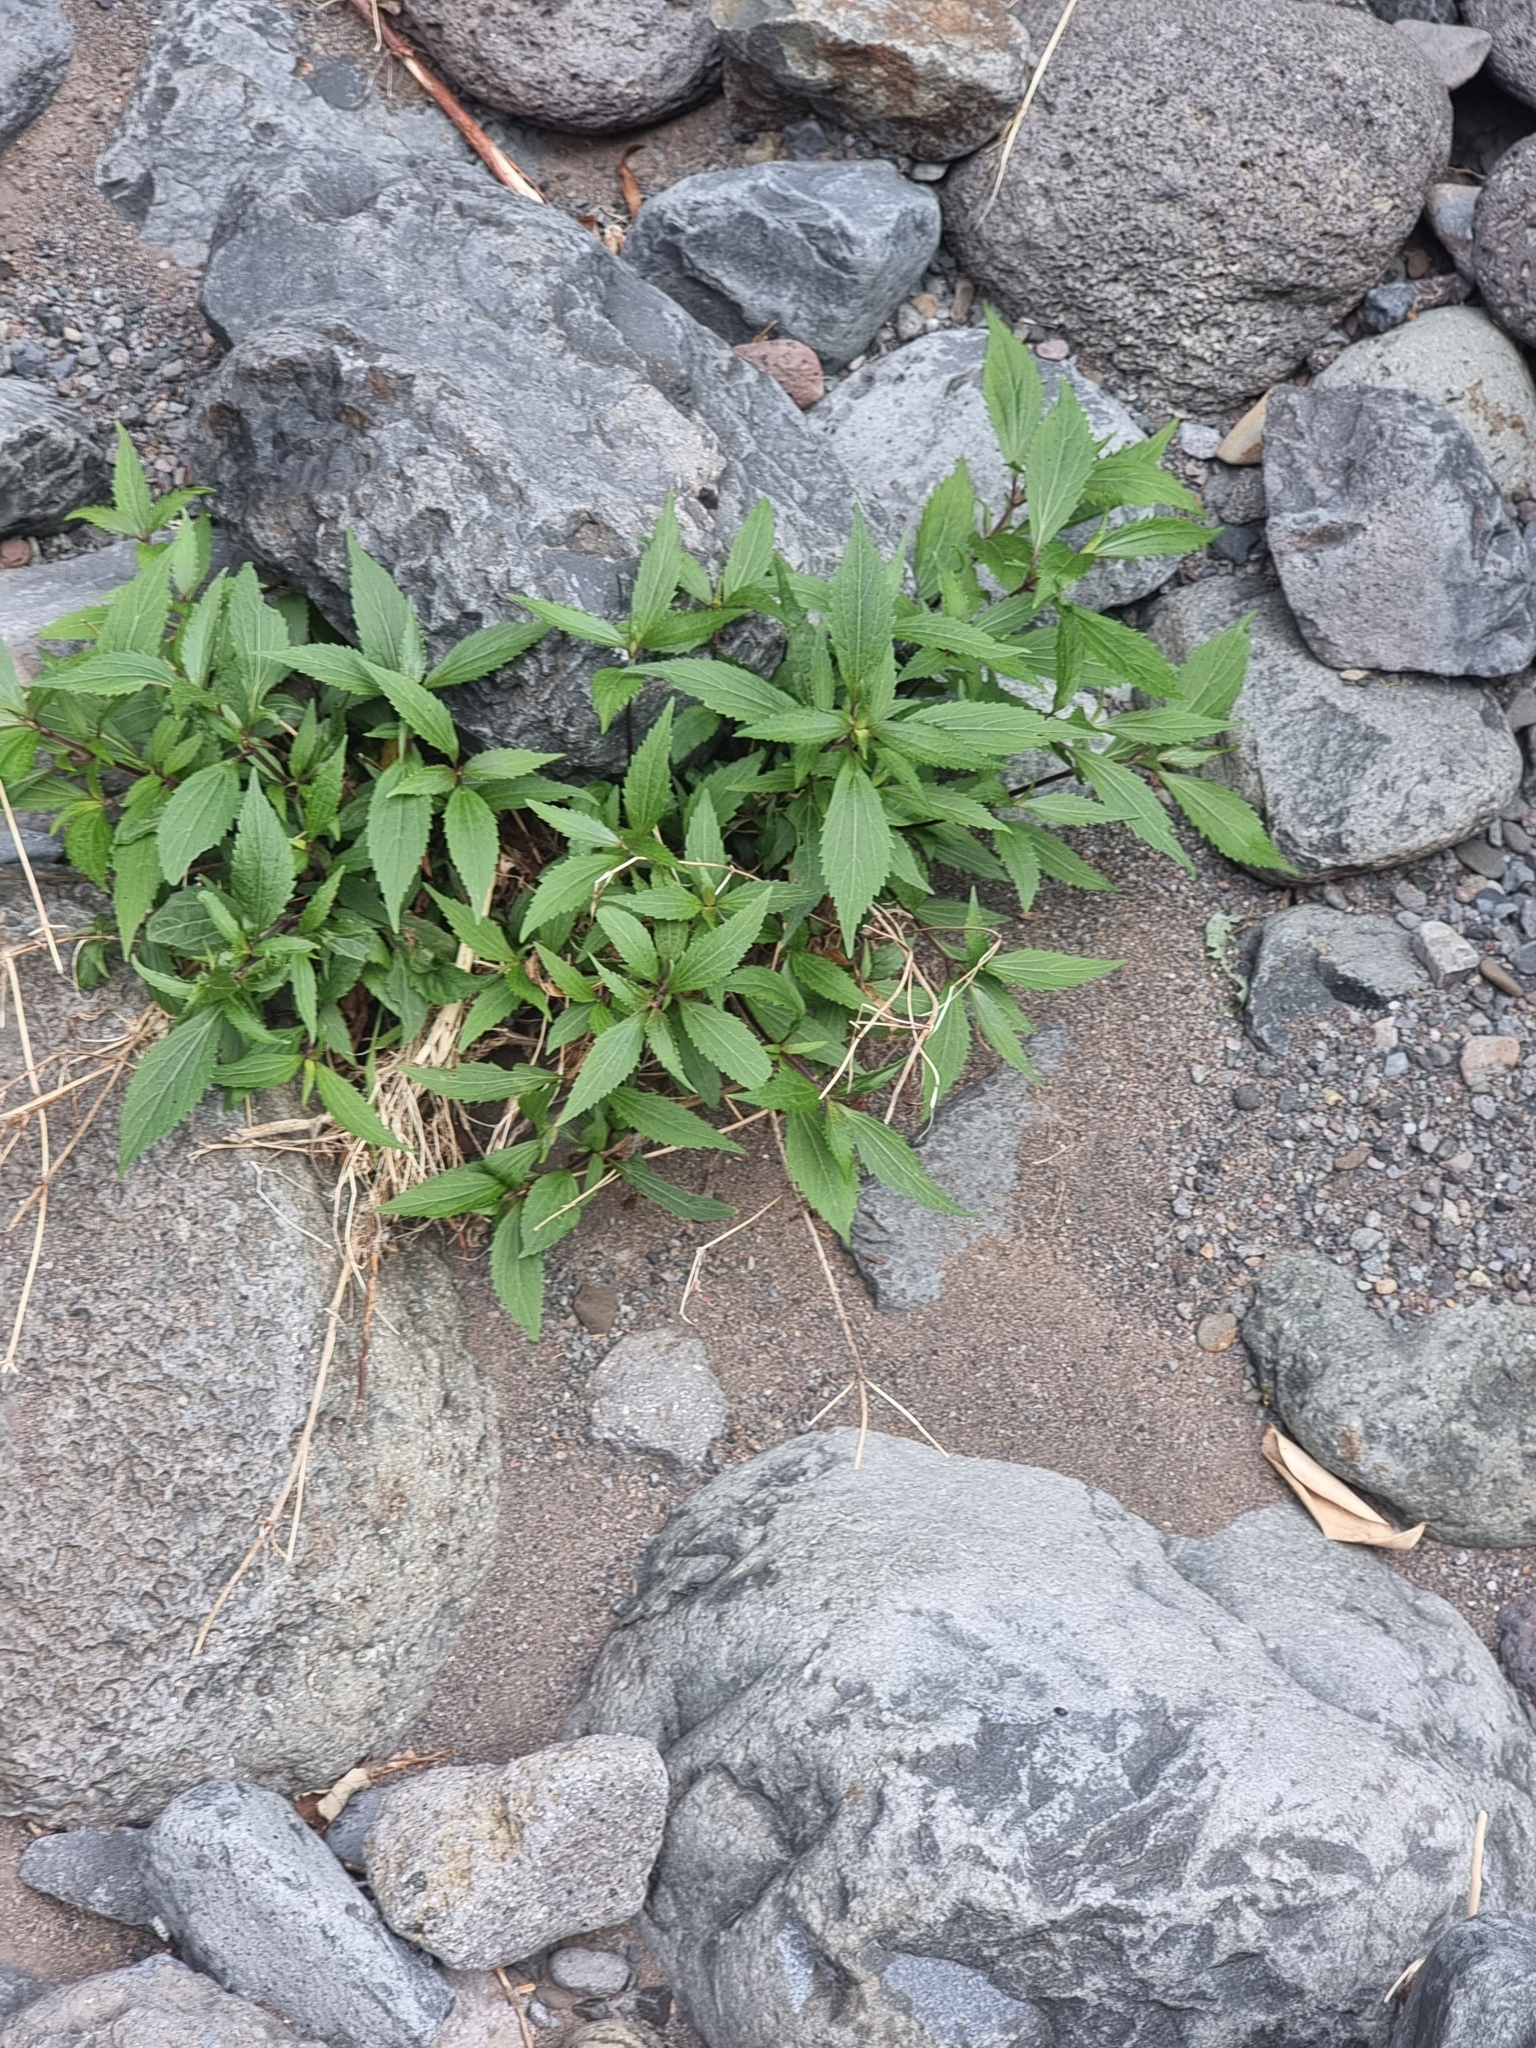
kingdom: Plantae
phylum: Tracheophyta
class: Magnoliopsida
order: Asterales
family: Asteraceae
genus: Ageratina
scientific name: Ageratina riparia
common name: Creeping croftonweed
